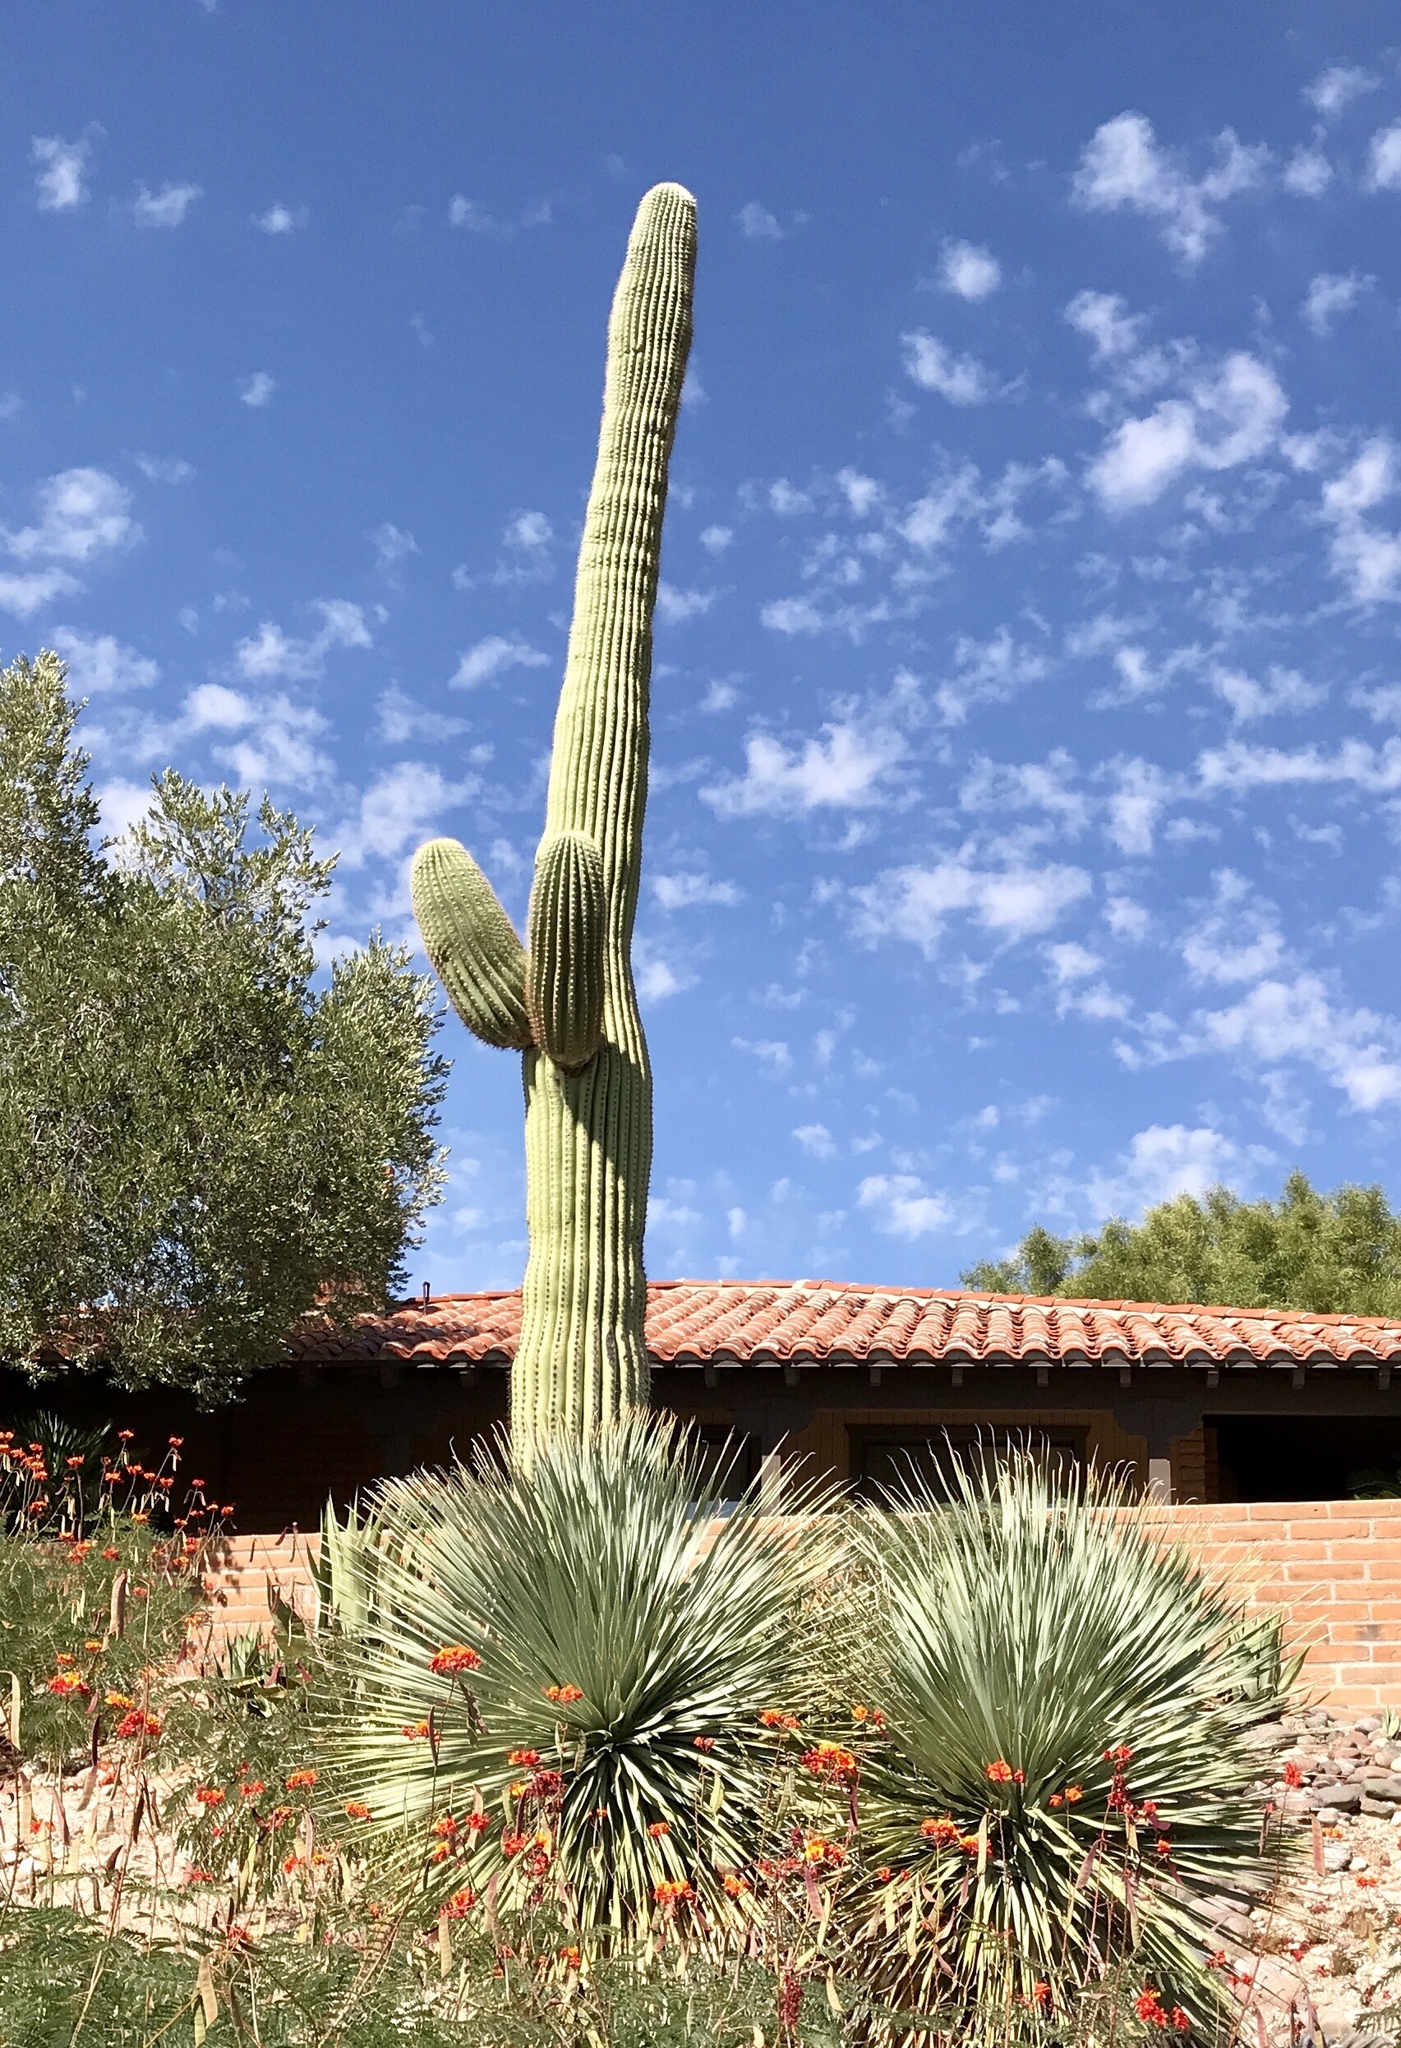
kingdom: Plantae
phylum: Tracheophyta
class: Magnoliopsida
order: Caryophyllales
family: Cactaceae
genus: Carnegiea
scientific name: Carnegiea gigantea
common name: Saguaro
